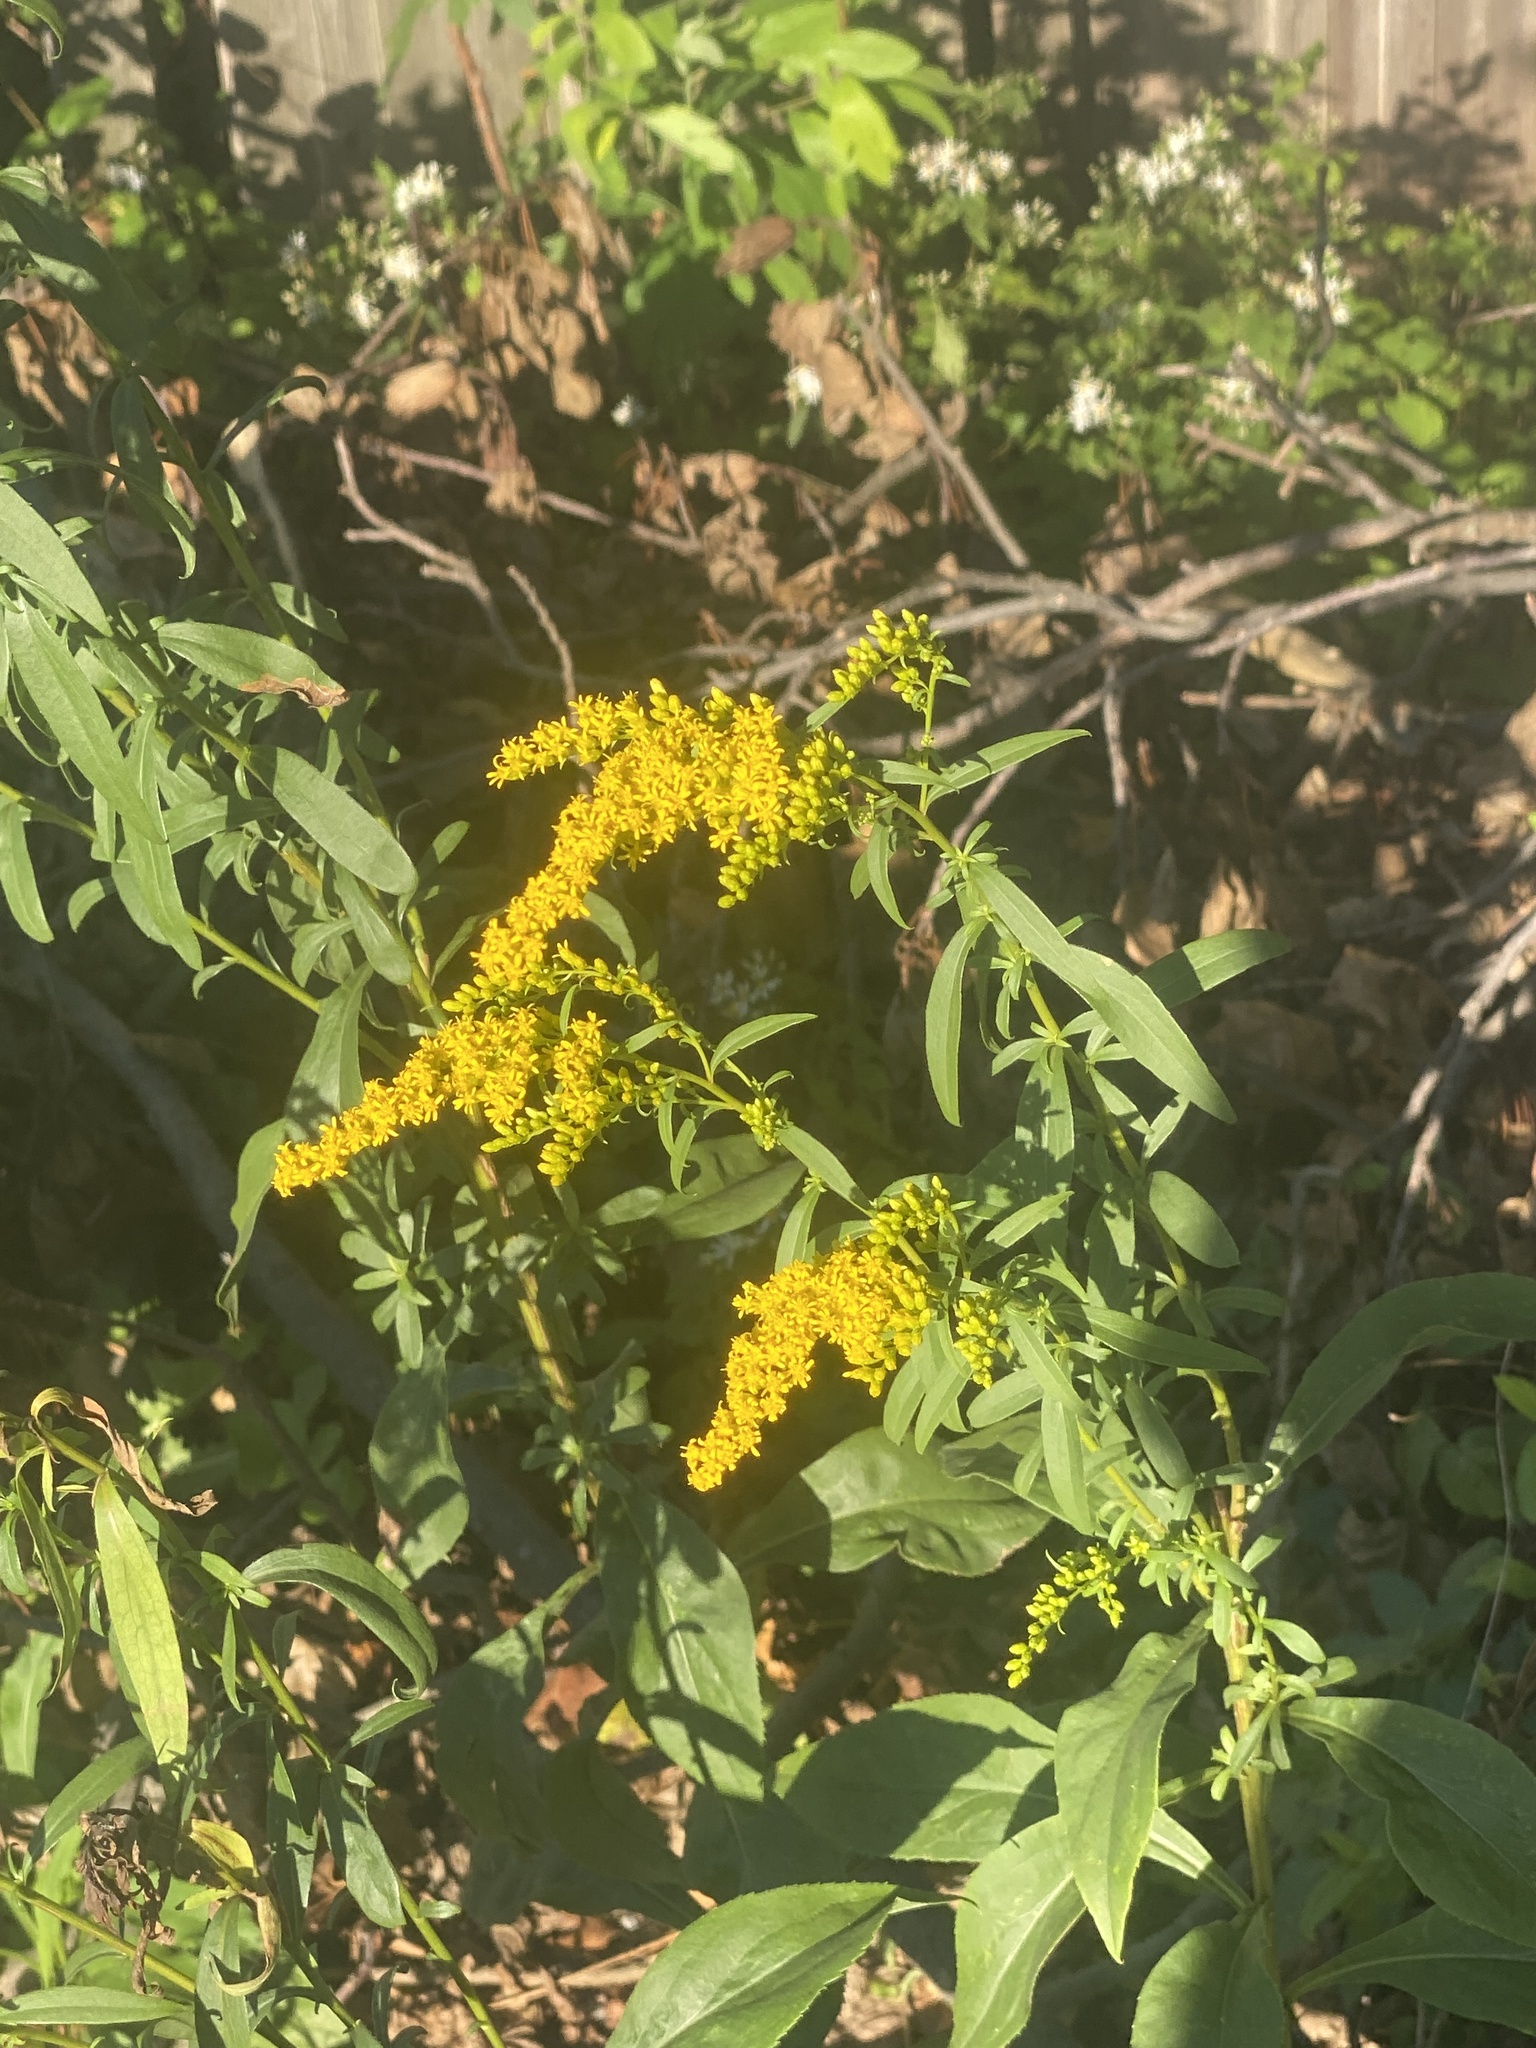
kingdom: Plantae
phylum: Tracheophyta
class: Magnoliopsida
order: Asterales
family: Asteraceae
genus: Solidago
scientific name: Solidago juncea
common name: Early goldenrod
